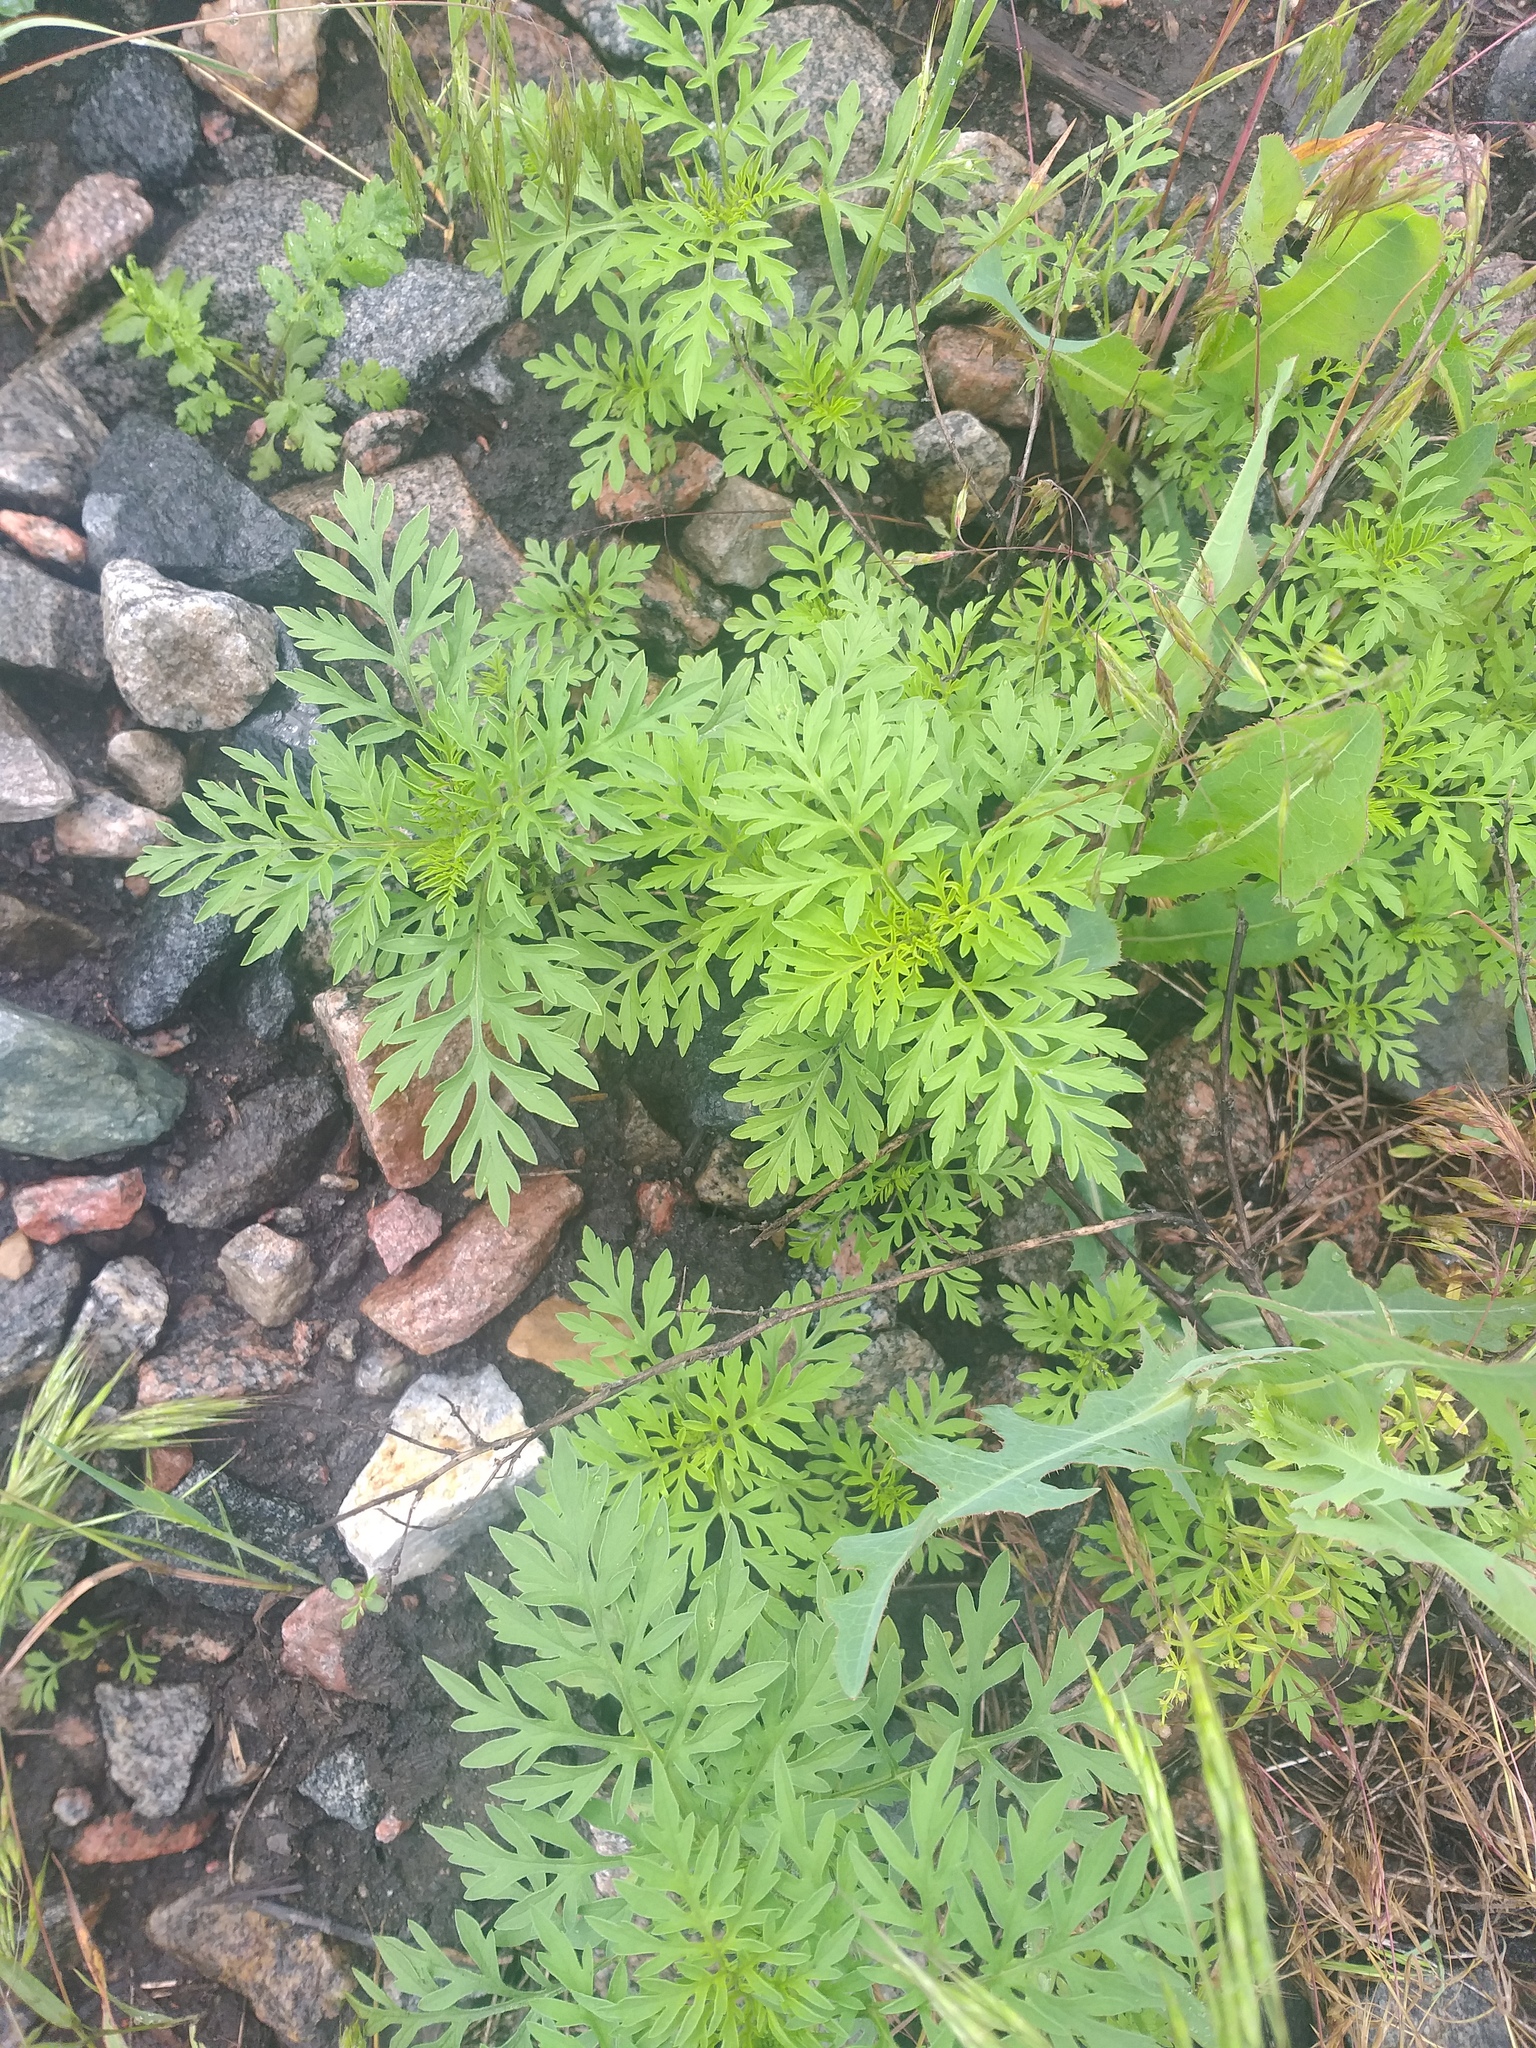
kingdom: Plantae
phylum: Tracheophyta
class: Magnoliopsida
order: Asterales
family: Asteraceae
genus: Ambrosia
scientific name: Ambrosia artemisiifolia
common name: Annual ragweed
